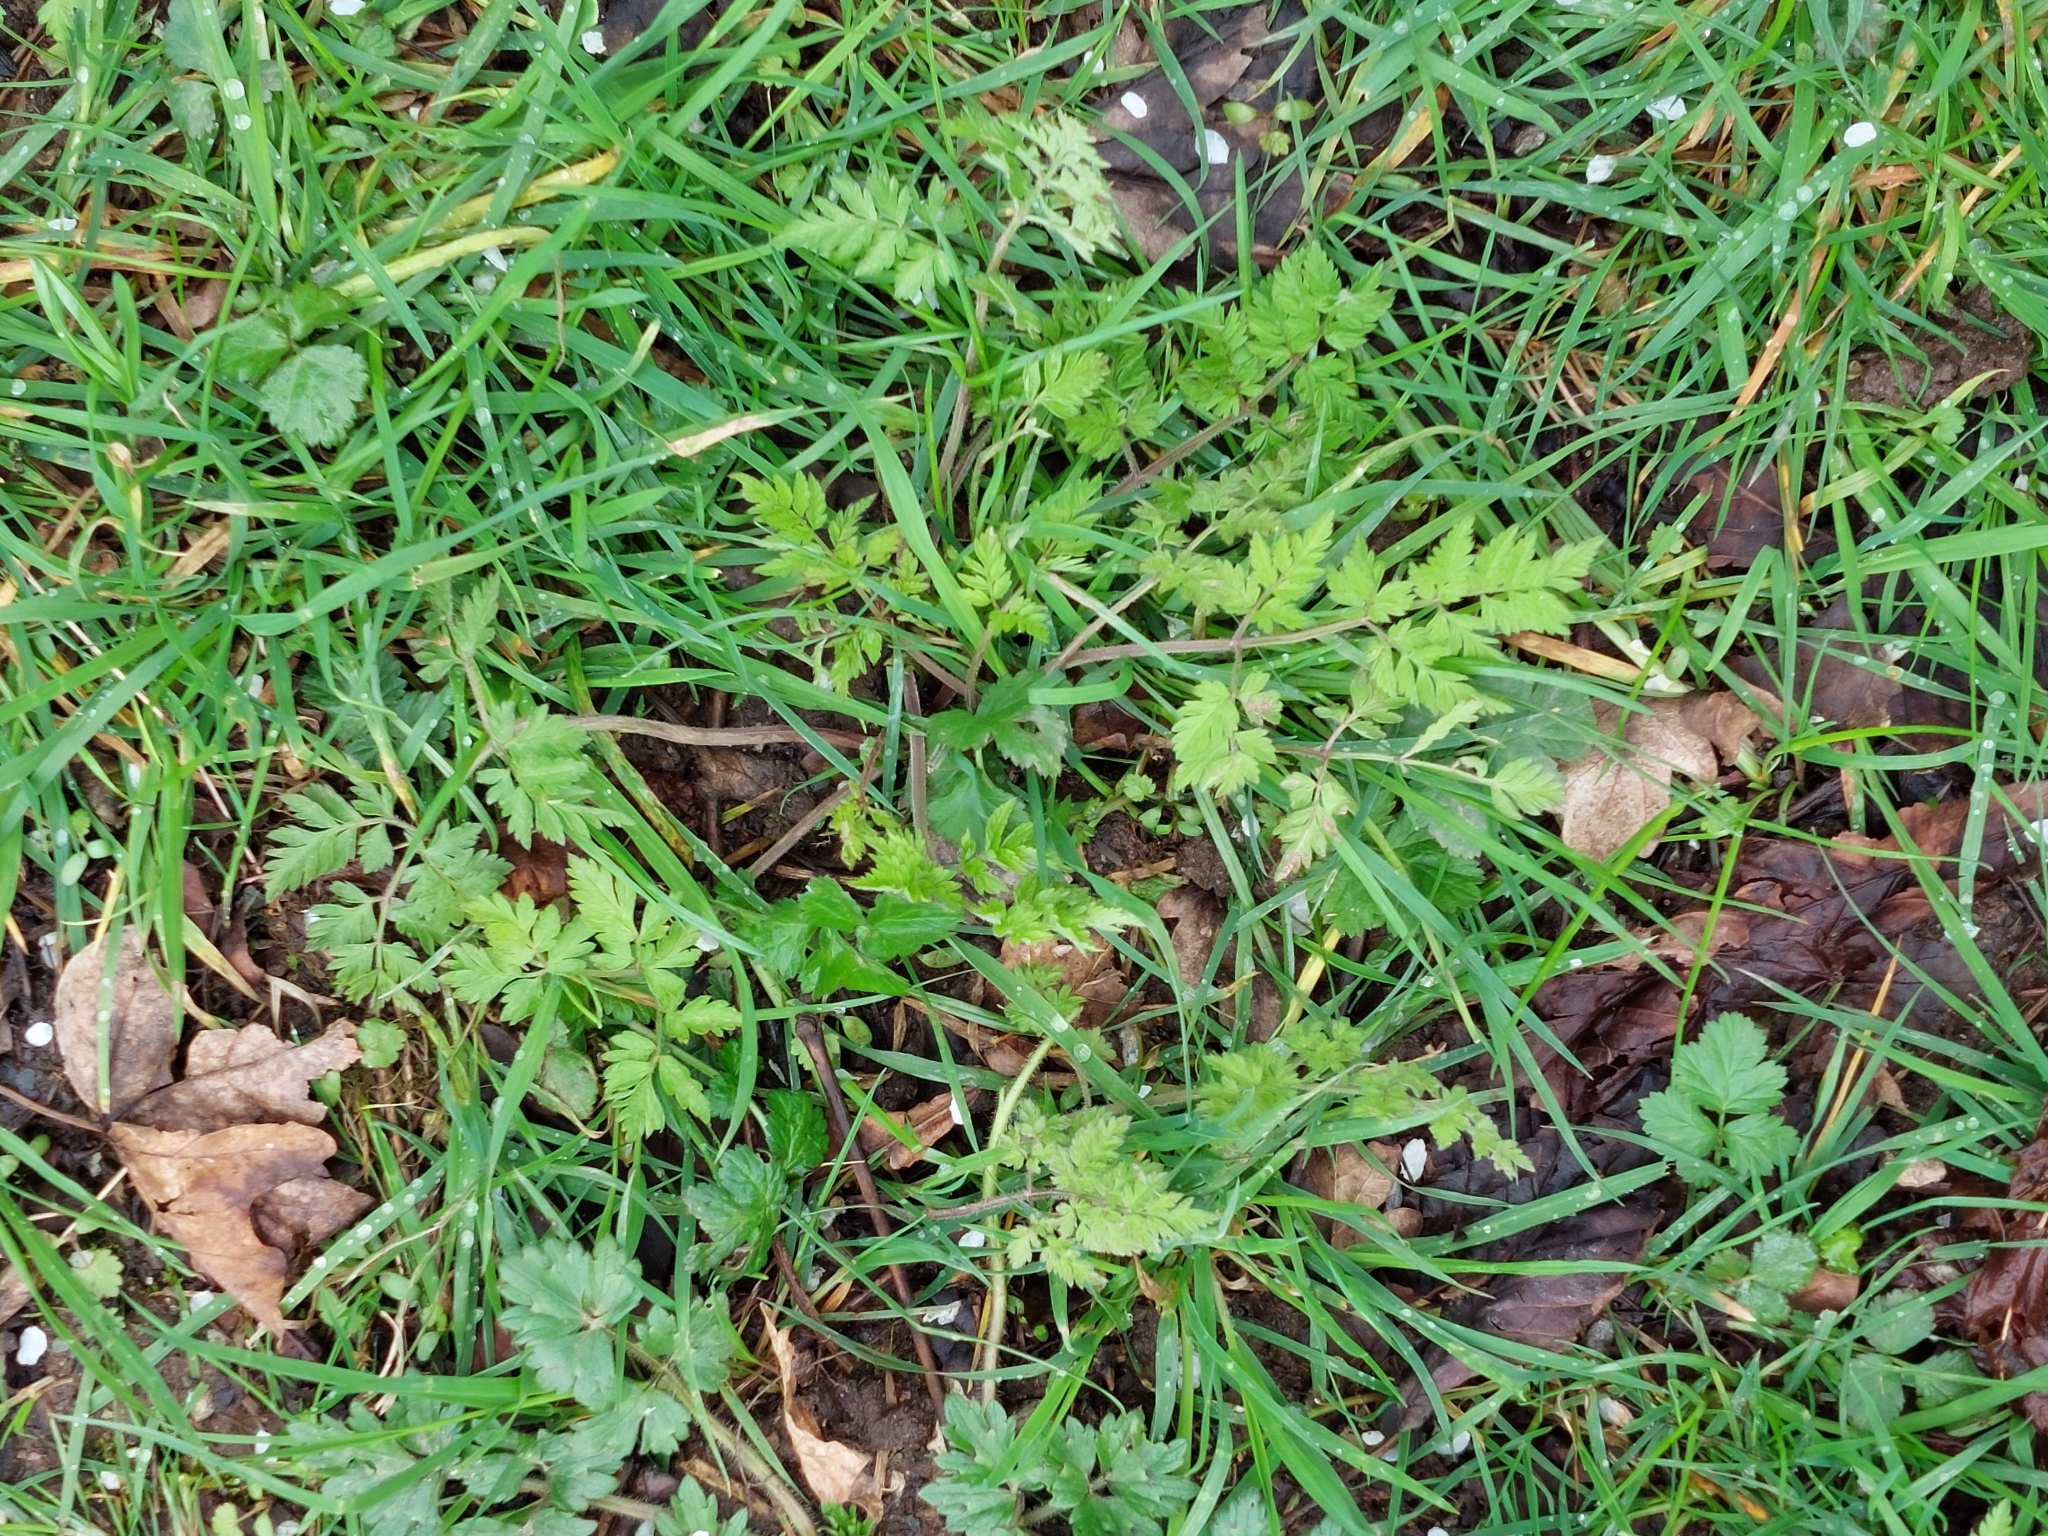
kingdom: Plantae
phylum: Tracheophyta
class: Magnoliopsida
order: Apiales
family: Apiaceae
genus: Anthriscus
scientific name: Anthriscus sylvestris
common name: Cow parsley
